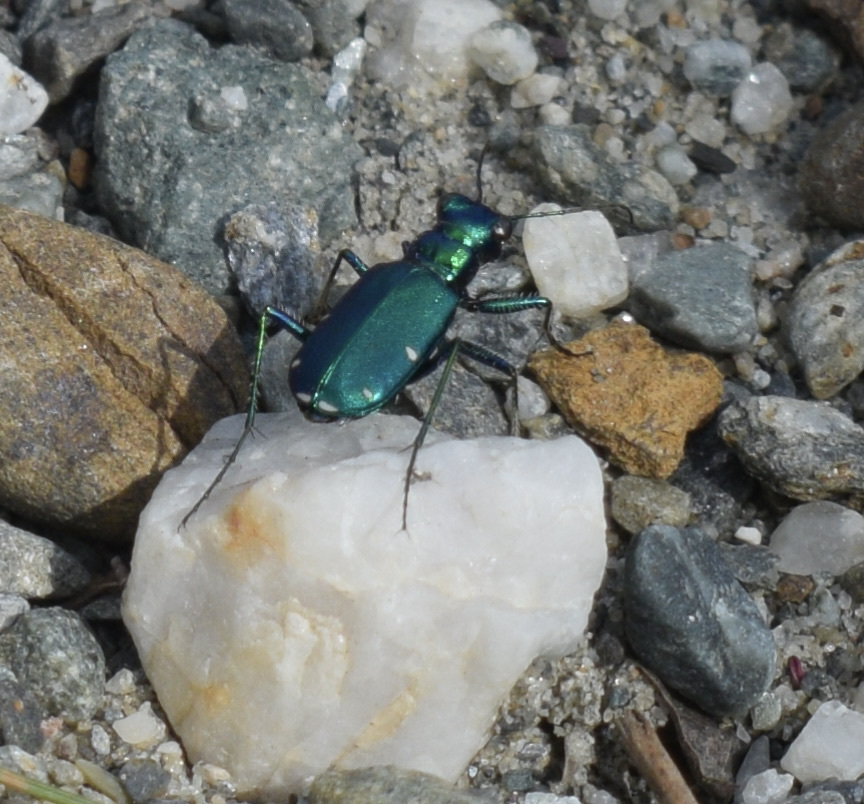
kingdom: Animalia
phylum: Arthropoda
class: Insecta
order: Coleoptera
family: Carabidae
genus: Cicindela
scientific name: Cicindela sexguttata
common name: Six-spotted tiger beetle
